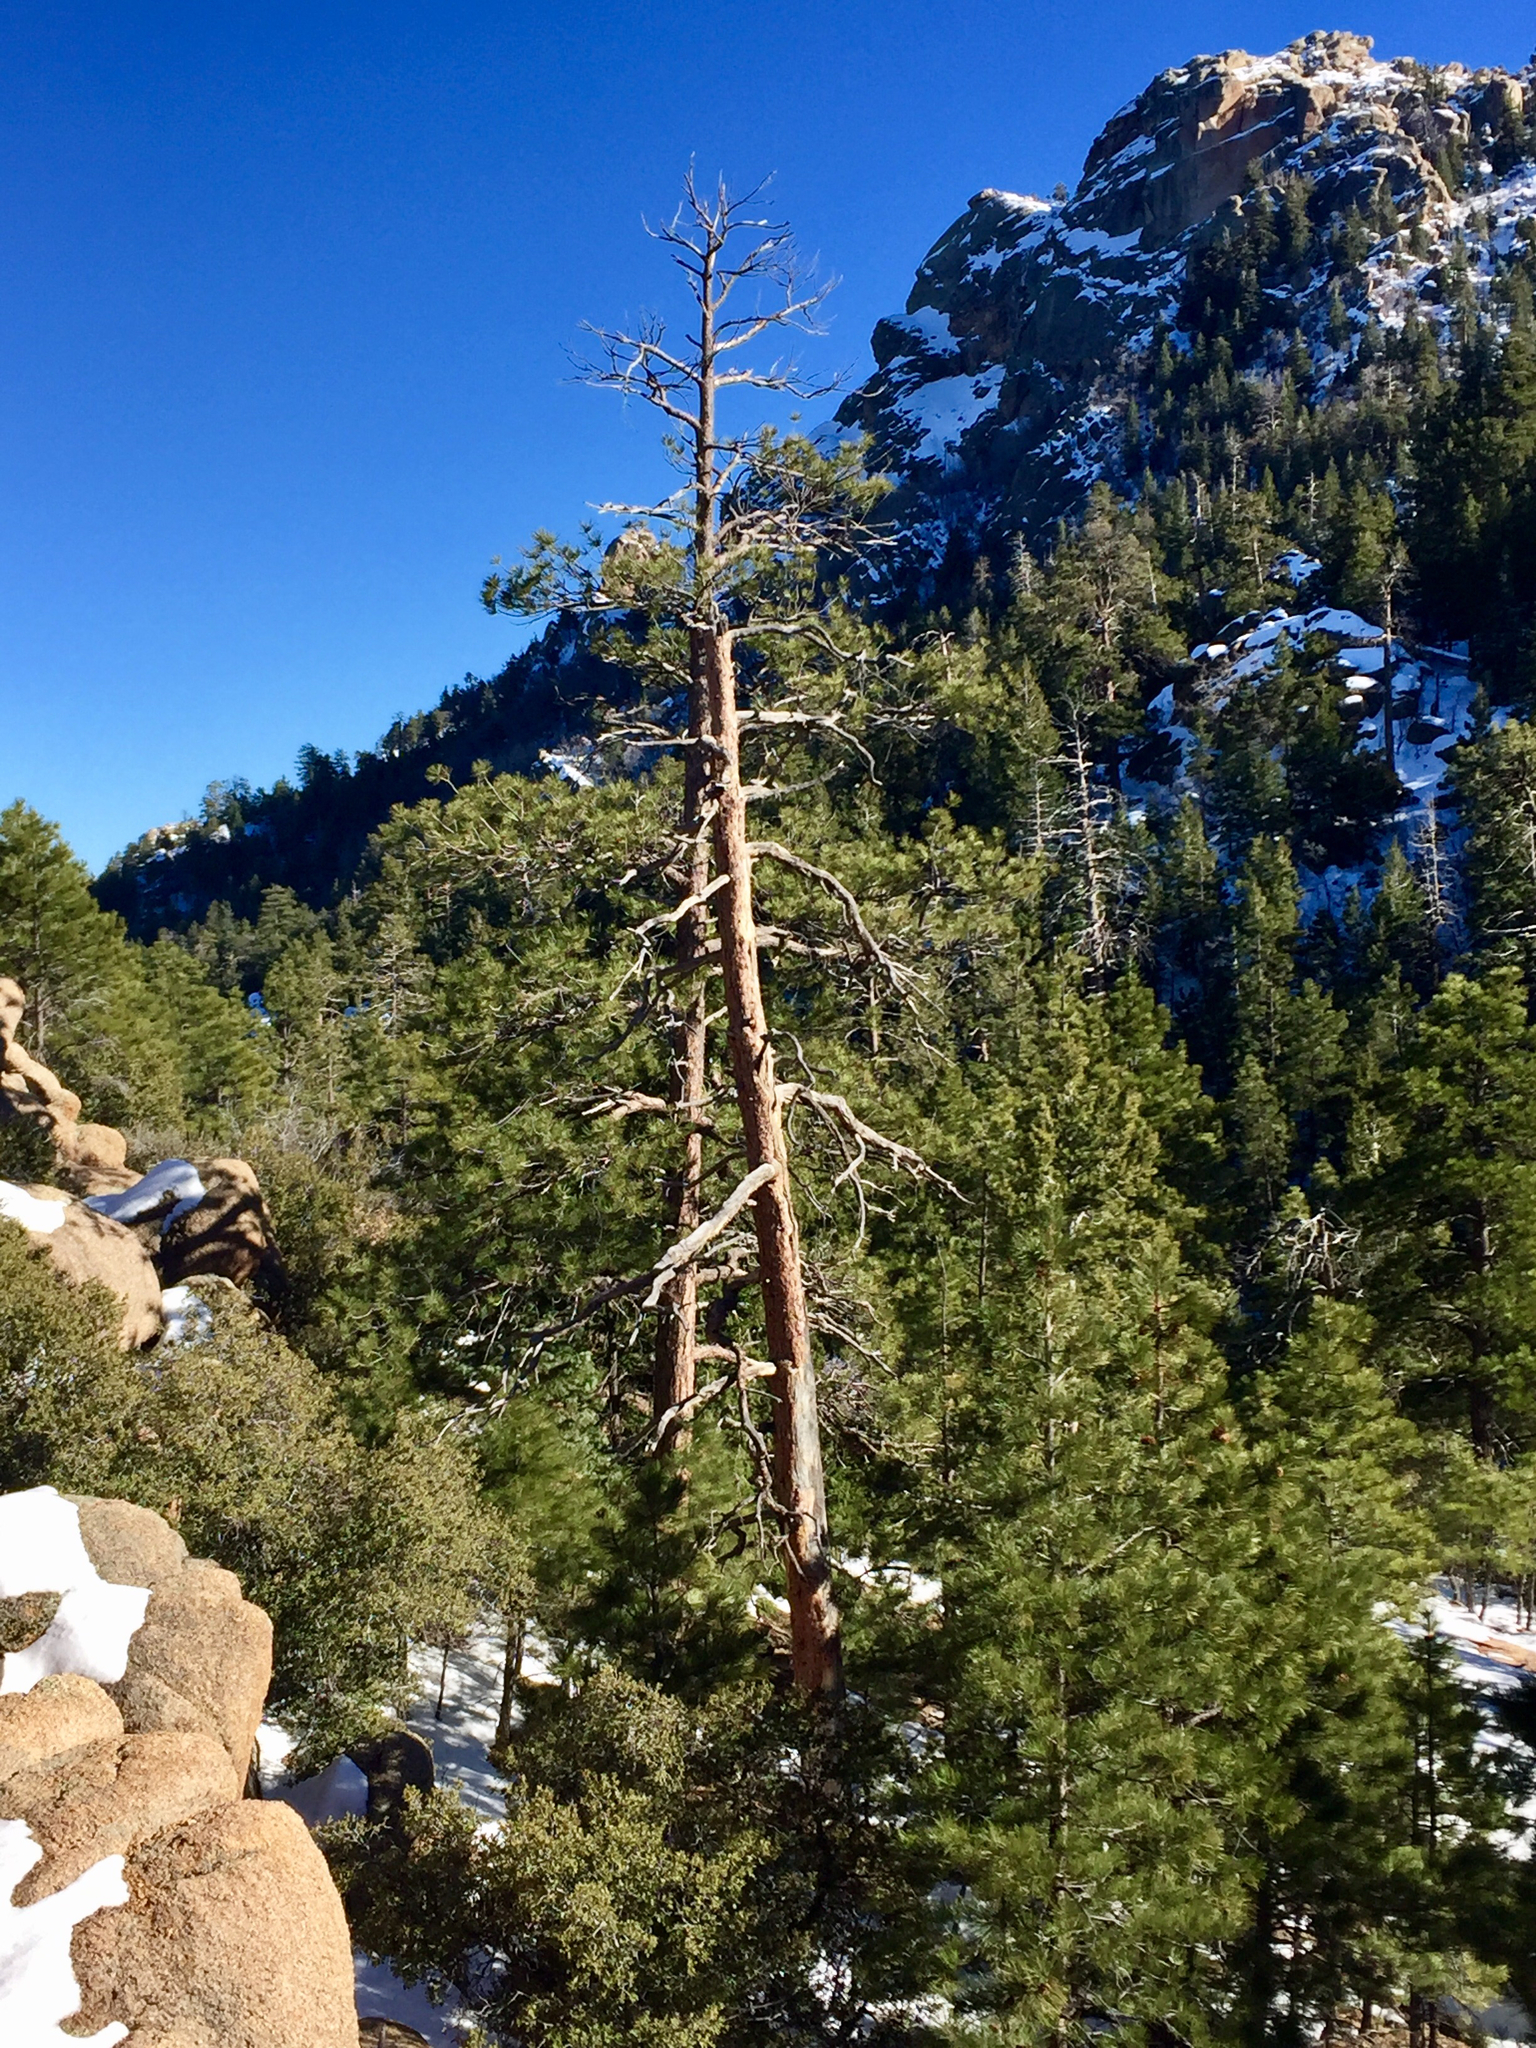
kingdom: Plantae
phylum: Tracheophyta
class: Pinopsida
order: Pinales
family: Pinaceae
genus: Pinus
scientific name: Pinus ponderosa
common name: Western yellow-pine
